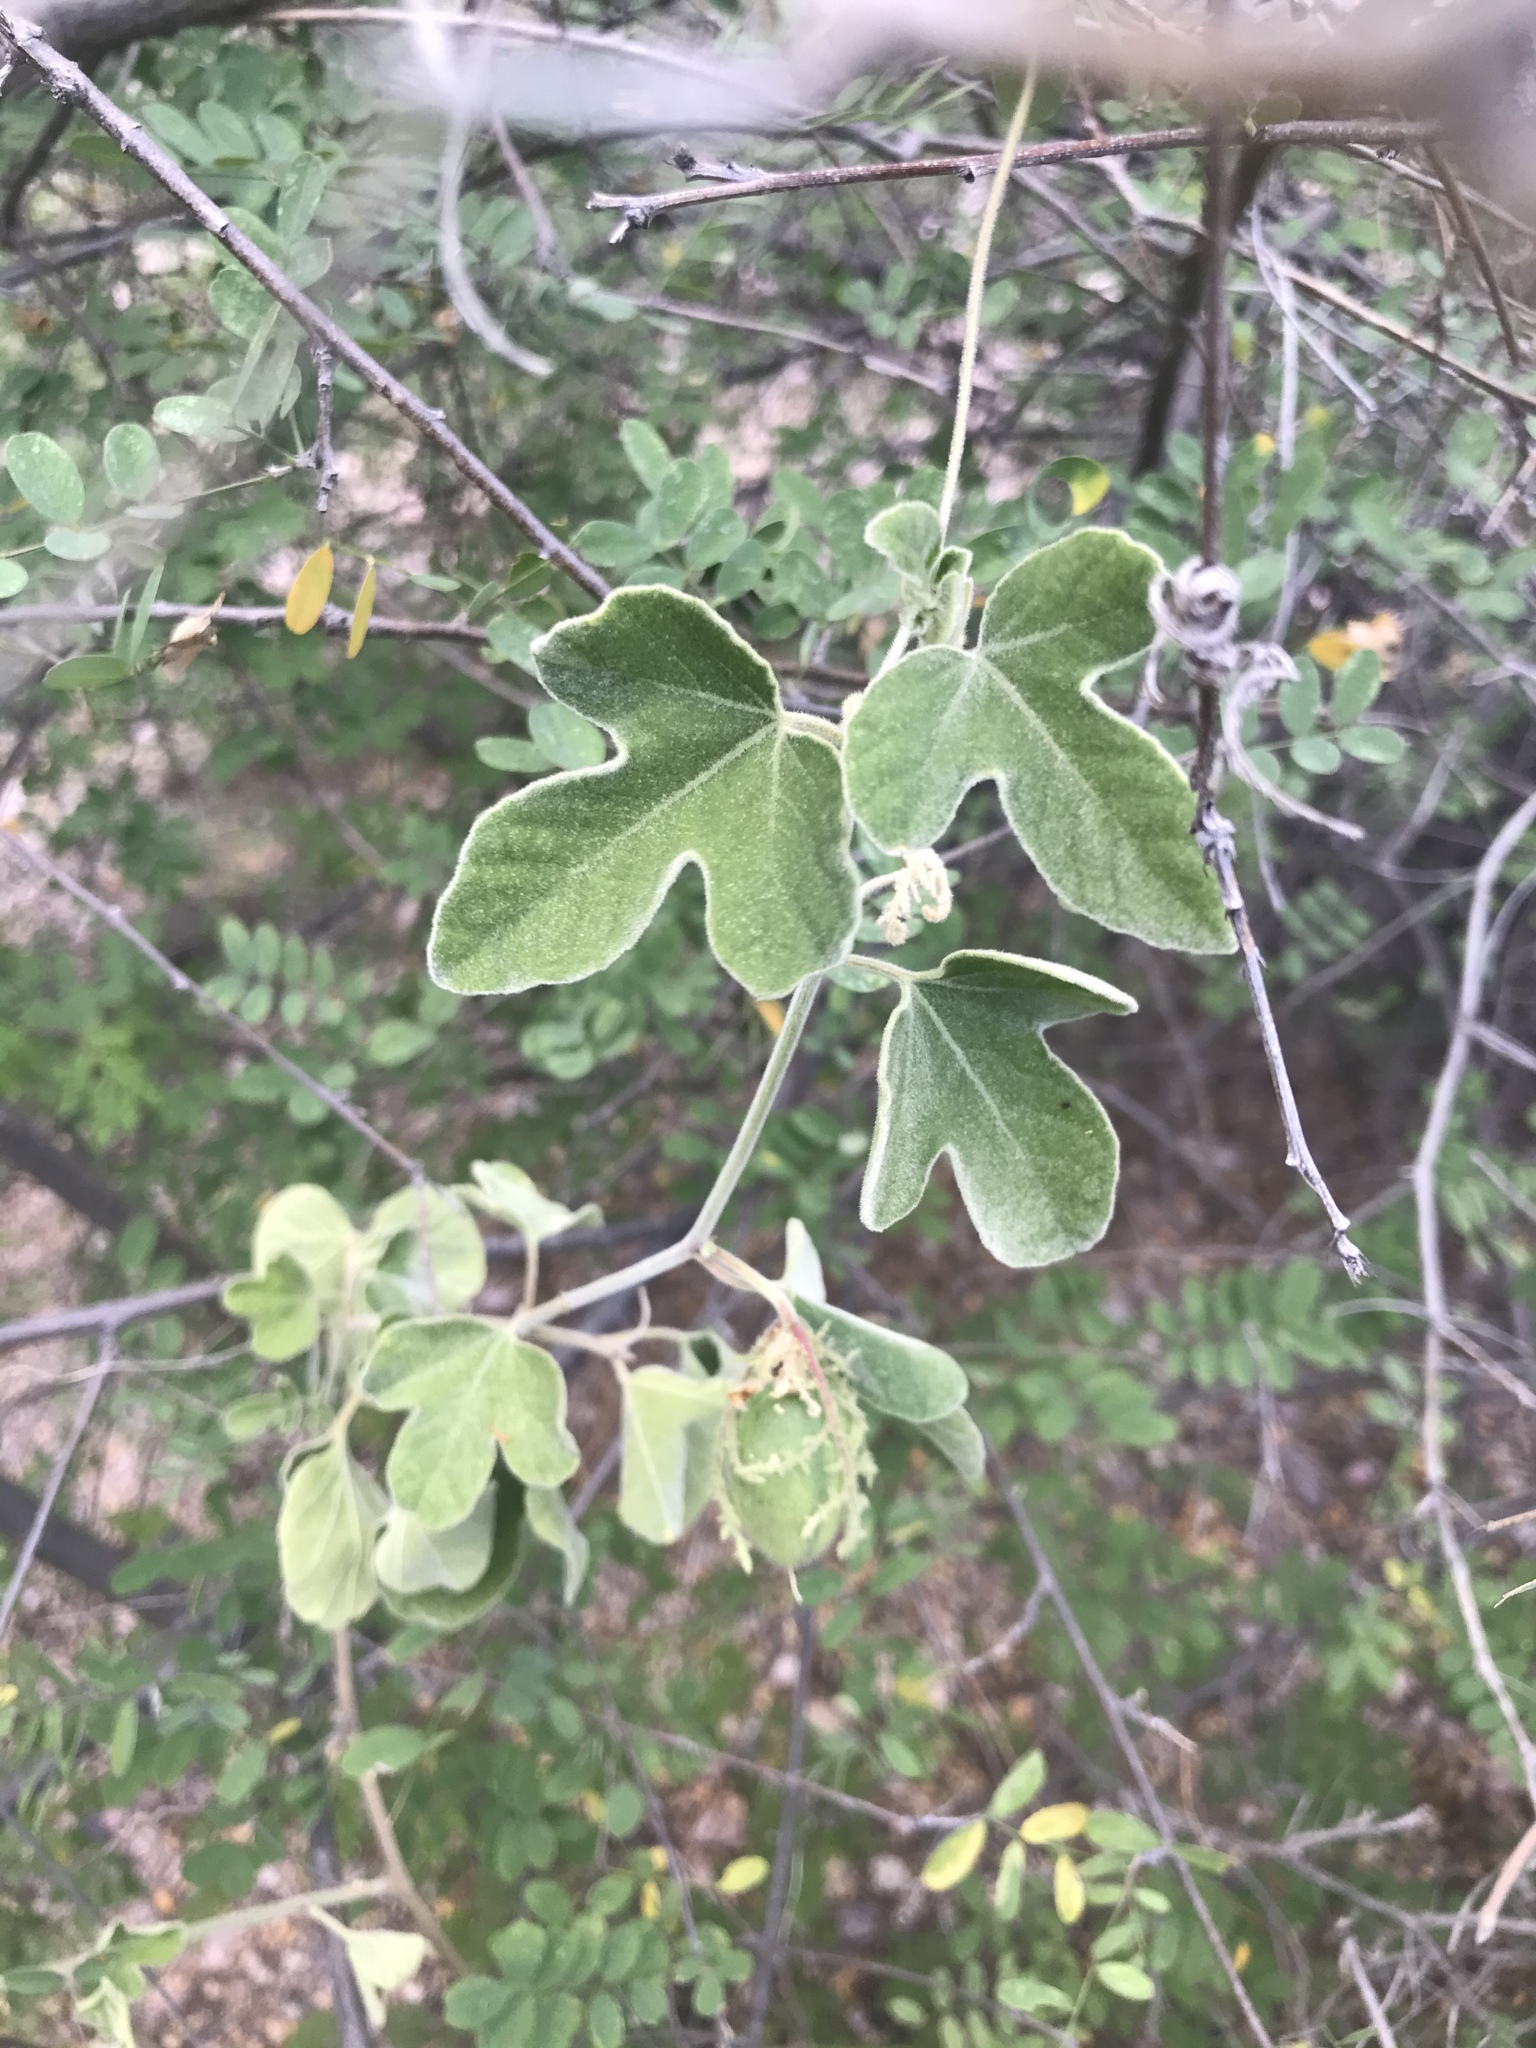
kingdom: Plantae
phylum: Tracheophyta
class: Magnoliopsida
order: Malpighiales
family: Passifloraceae
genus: Passiflora
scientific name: Passiflora arida
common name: Desert passionflower
